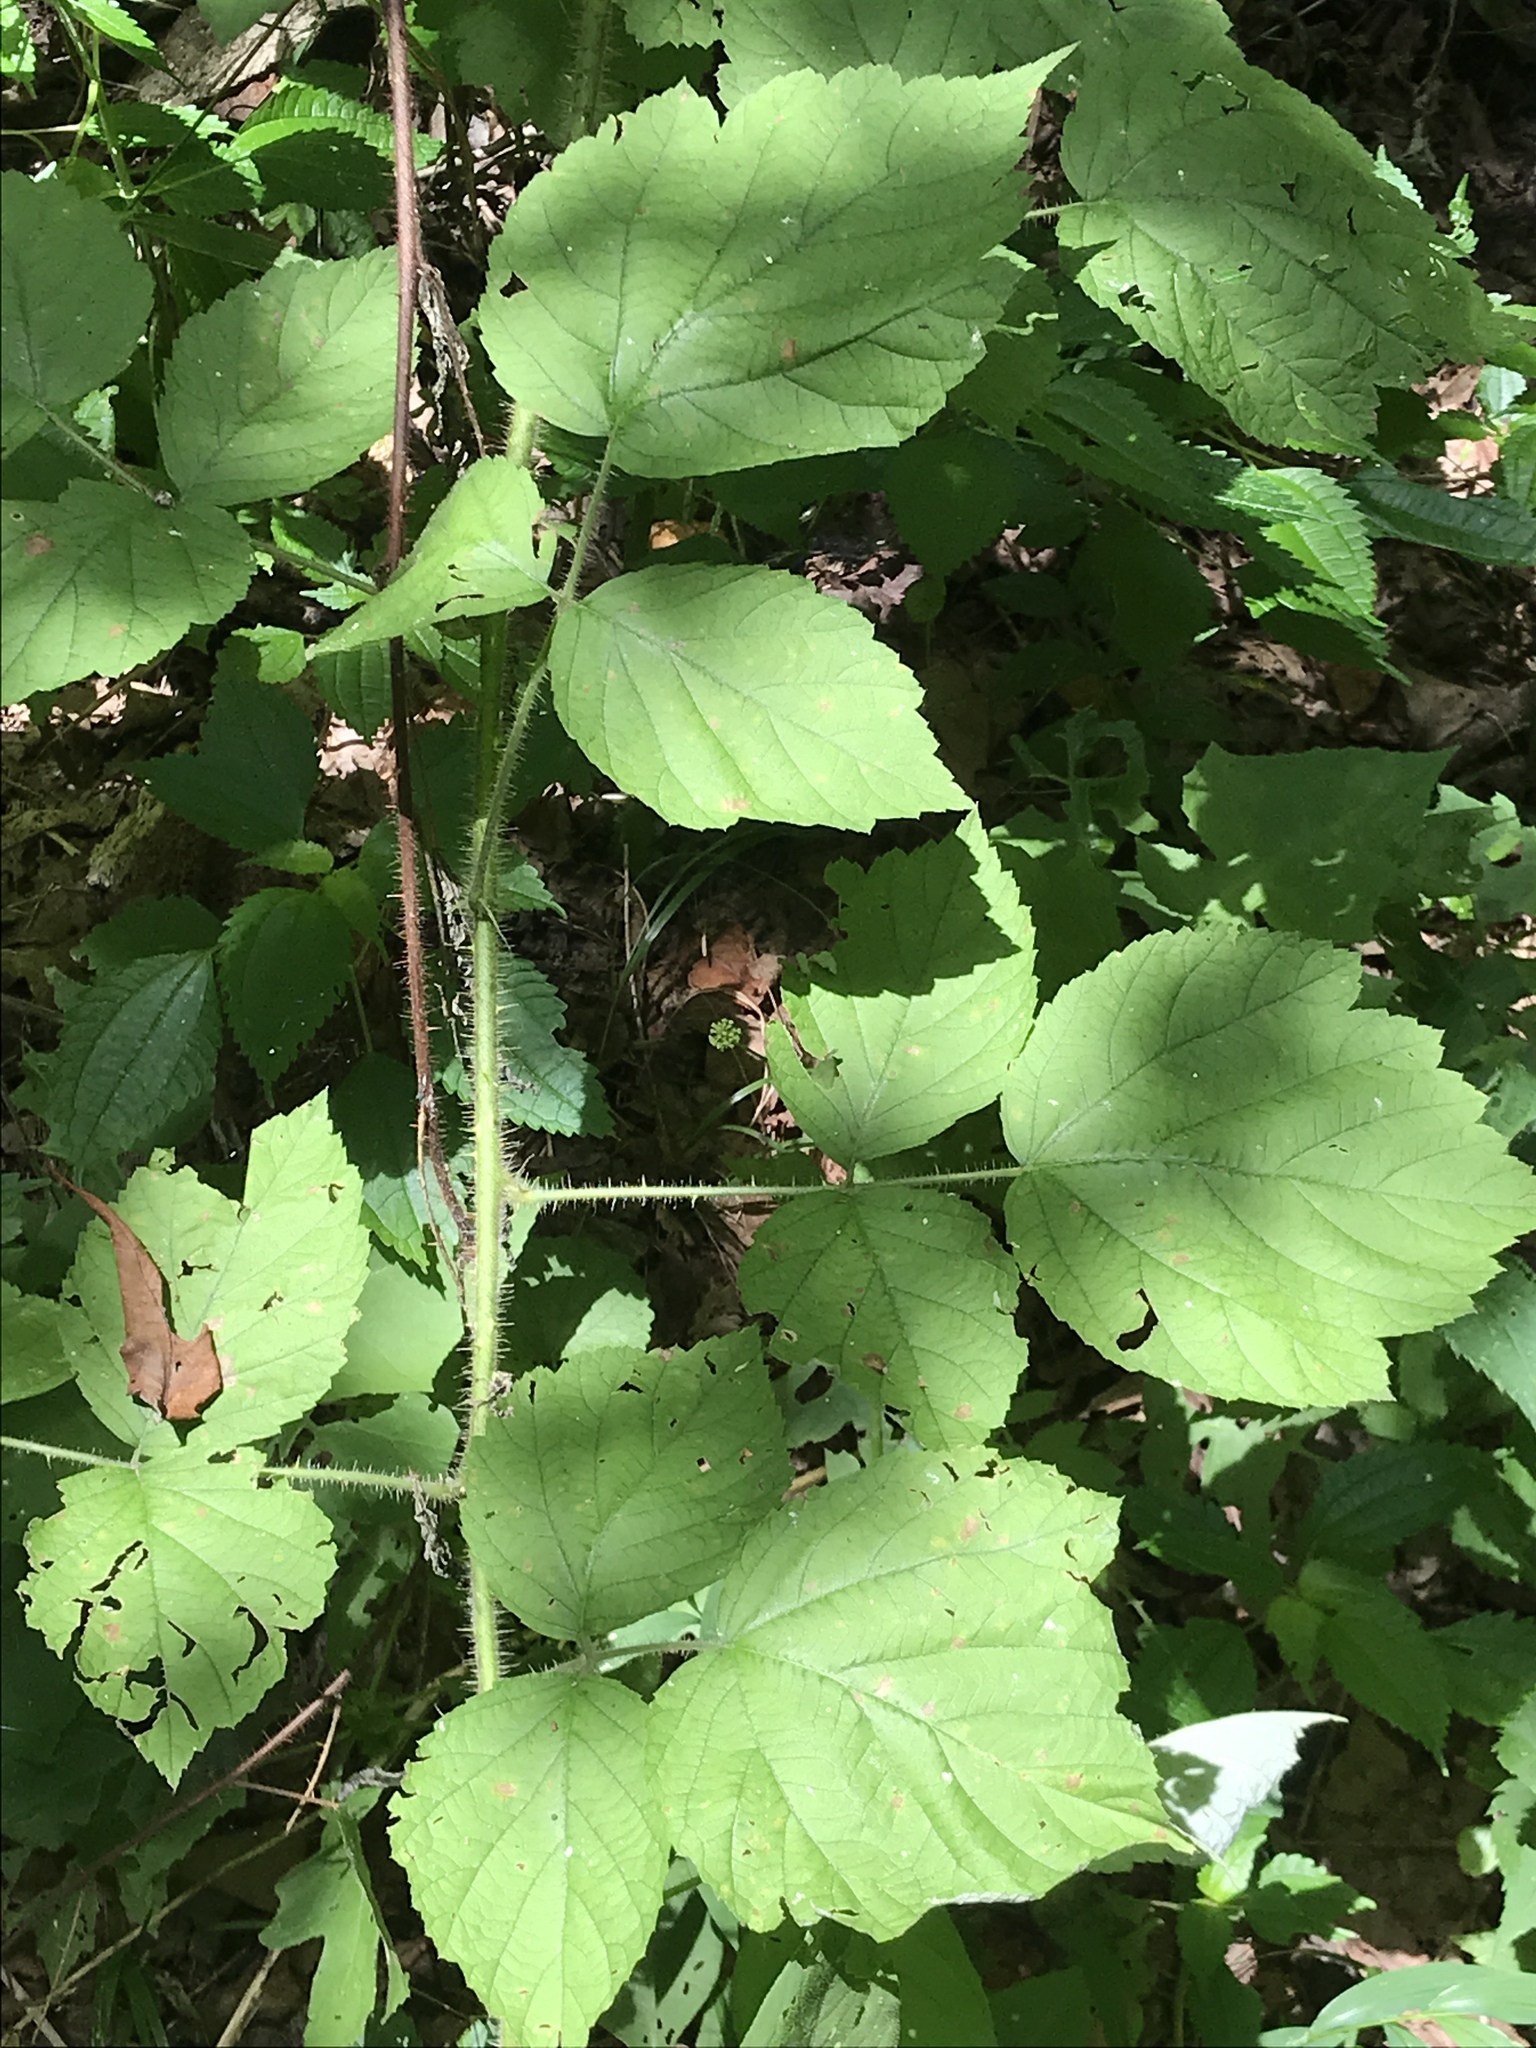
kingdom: Plantae
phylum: Tracheophyta
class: Magnoliopsida
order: Rosales
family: Rosaceae
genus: Rubus
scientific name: Rubus phoenicolasius
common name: Japanese wineberry
